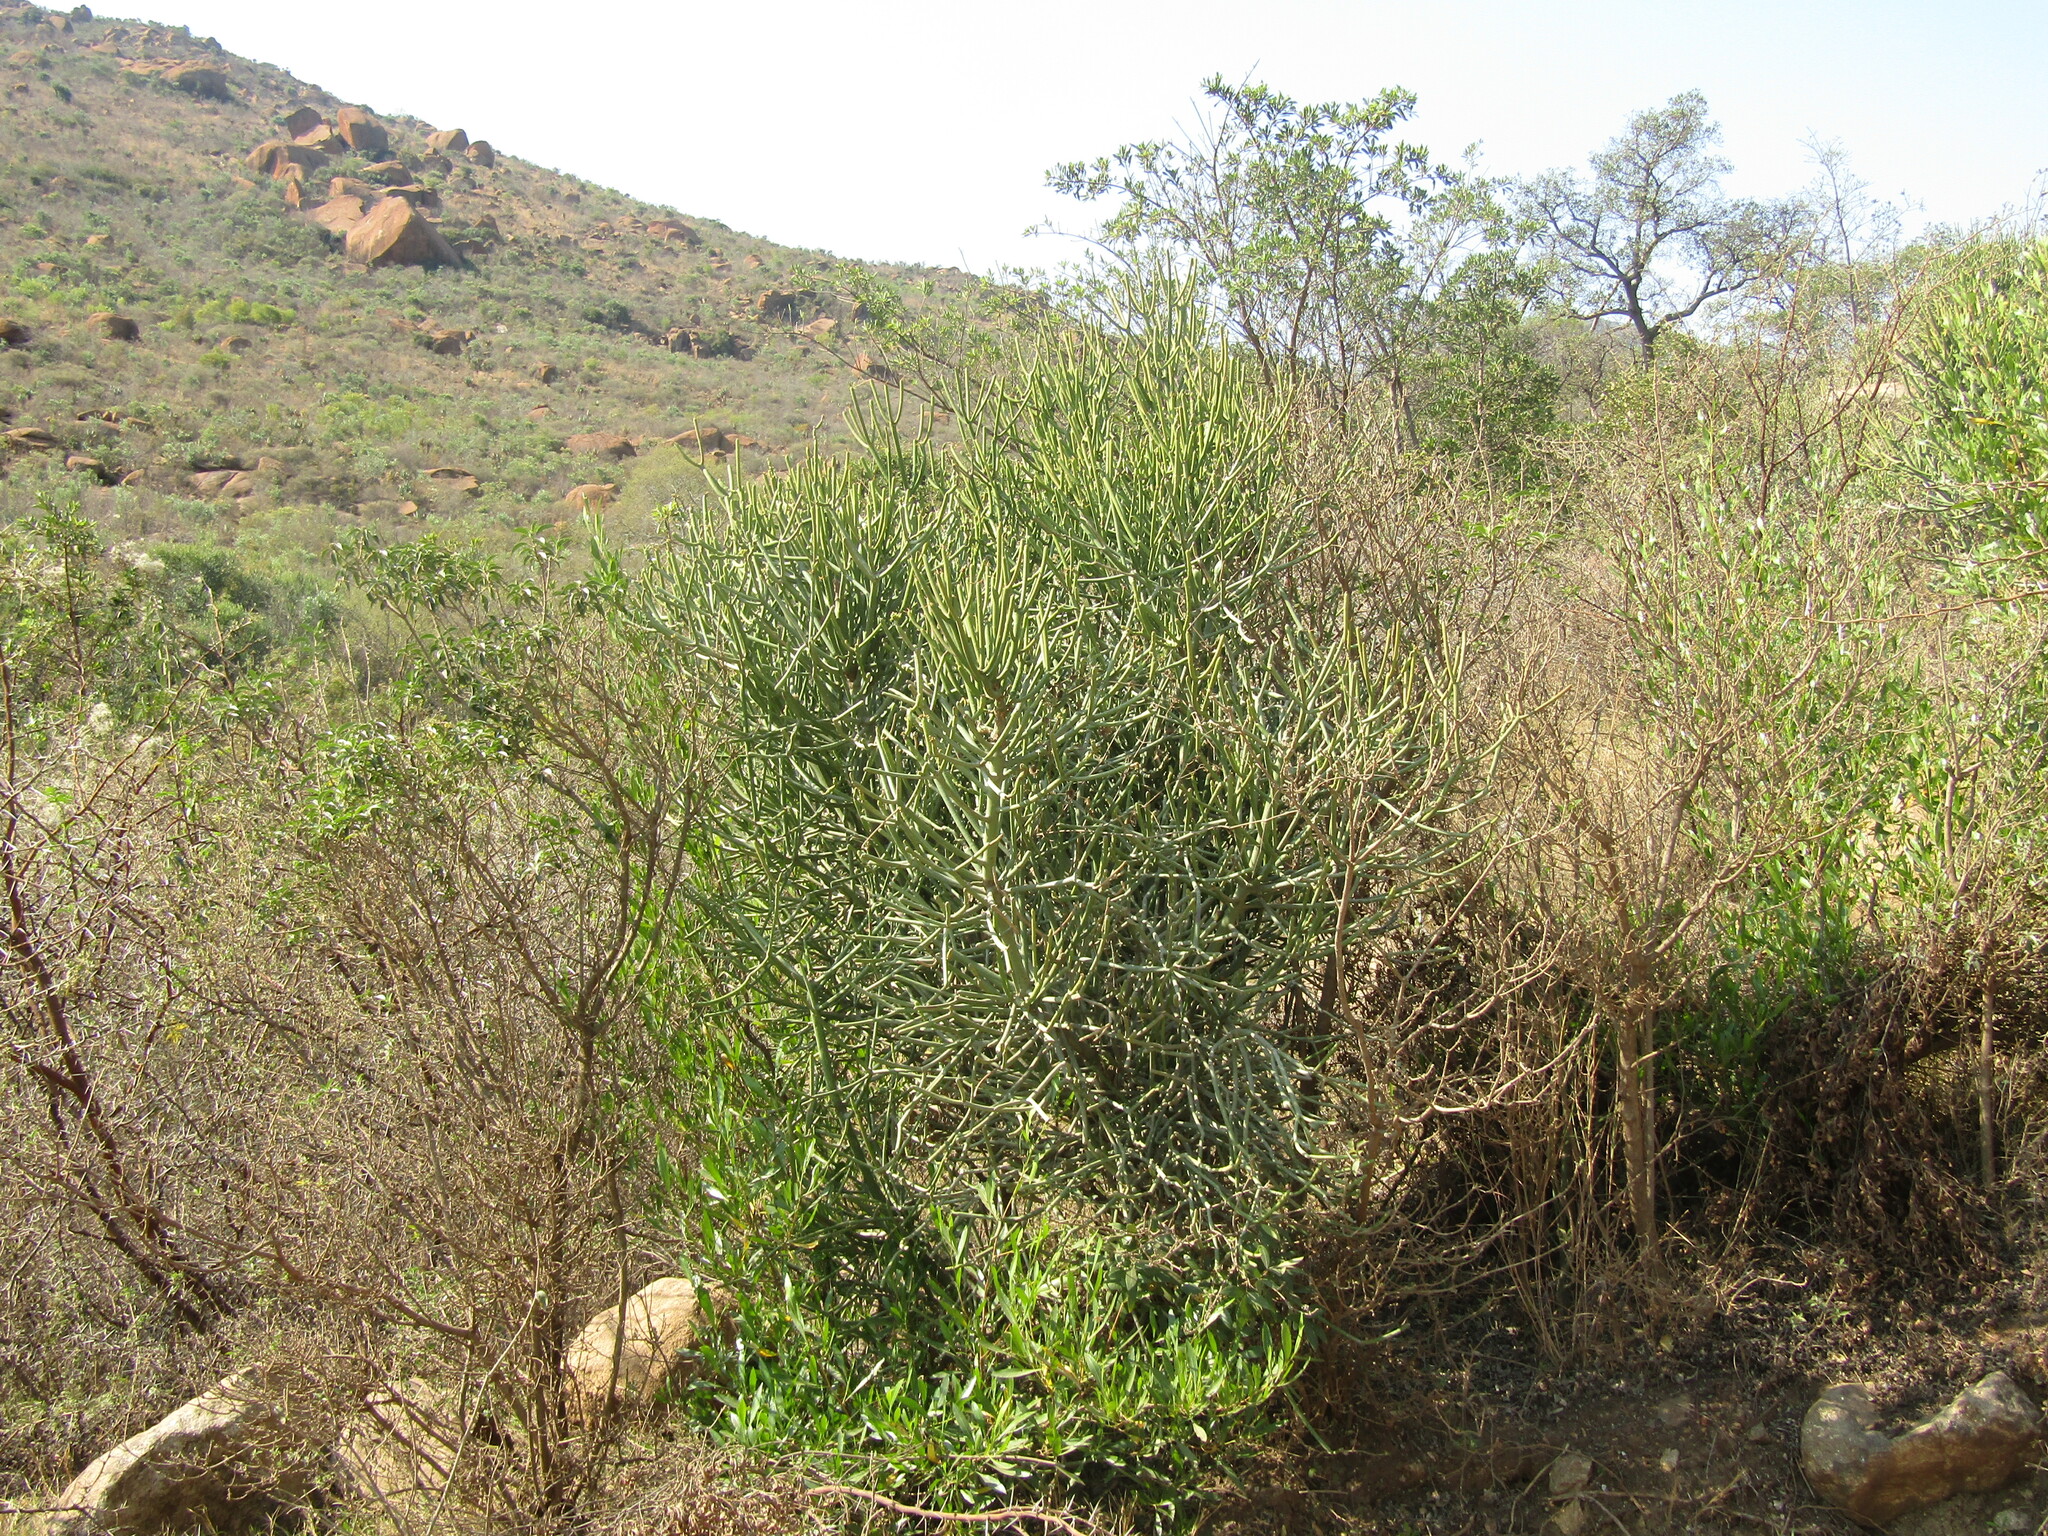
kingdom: Plantae
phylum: Tracheophyta
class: Magnoliopsida
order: Malpighiales
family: Euphorbiaceae
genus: Euphorbia
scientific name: Euphorbia tirucalli
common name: Indiantree spurge
